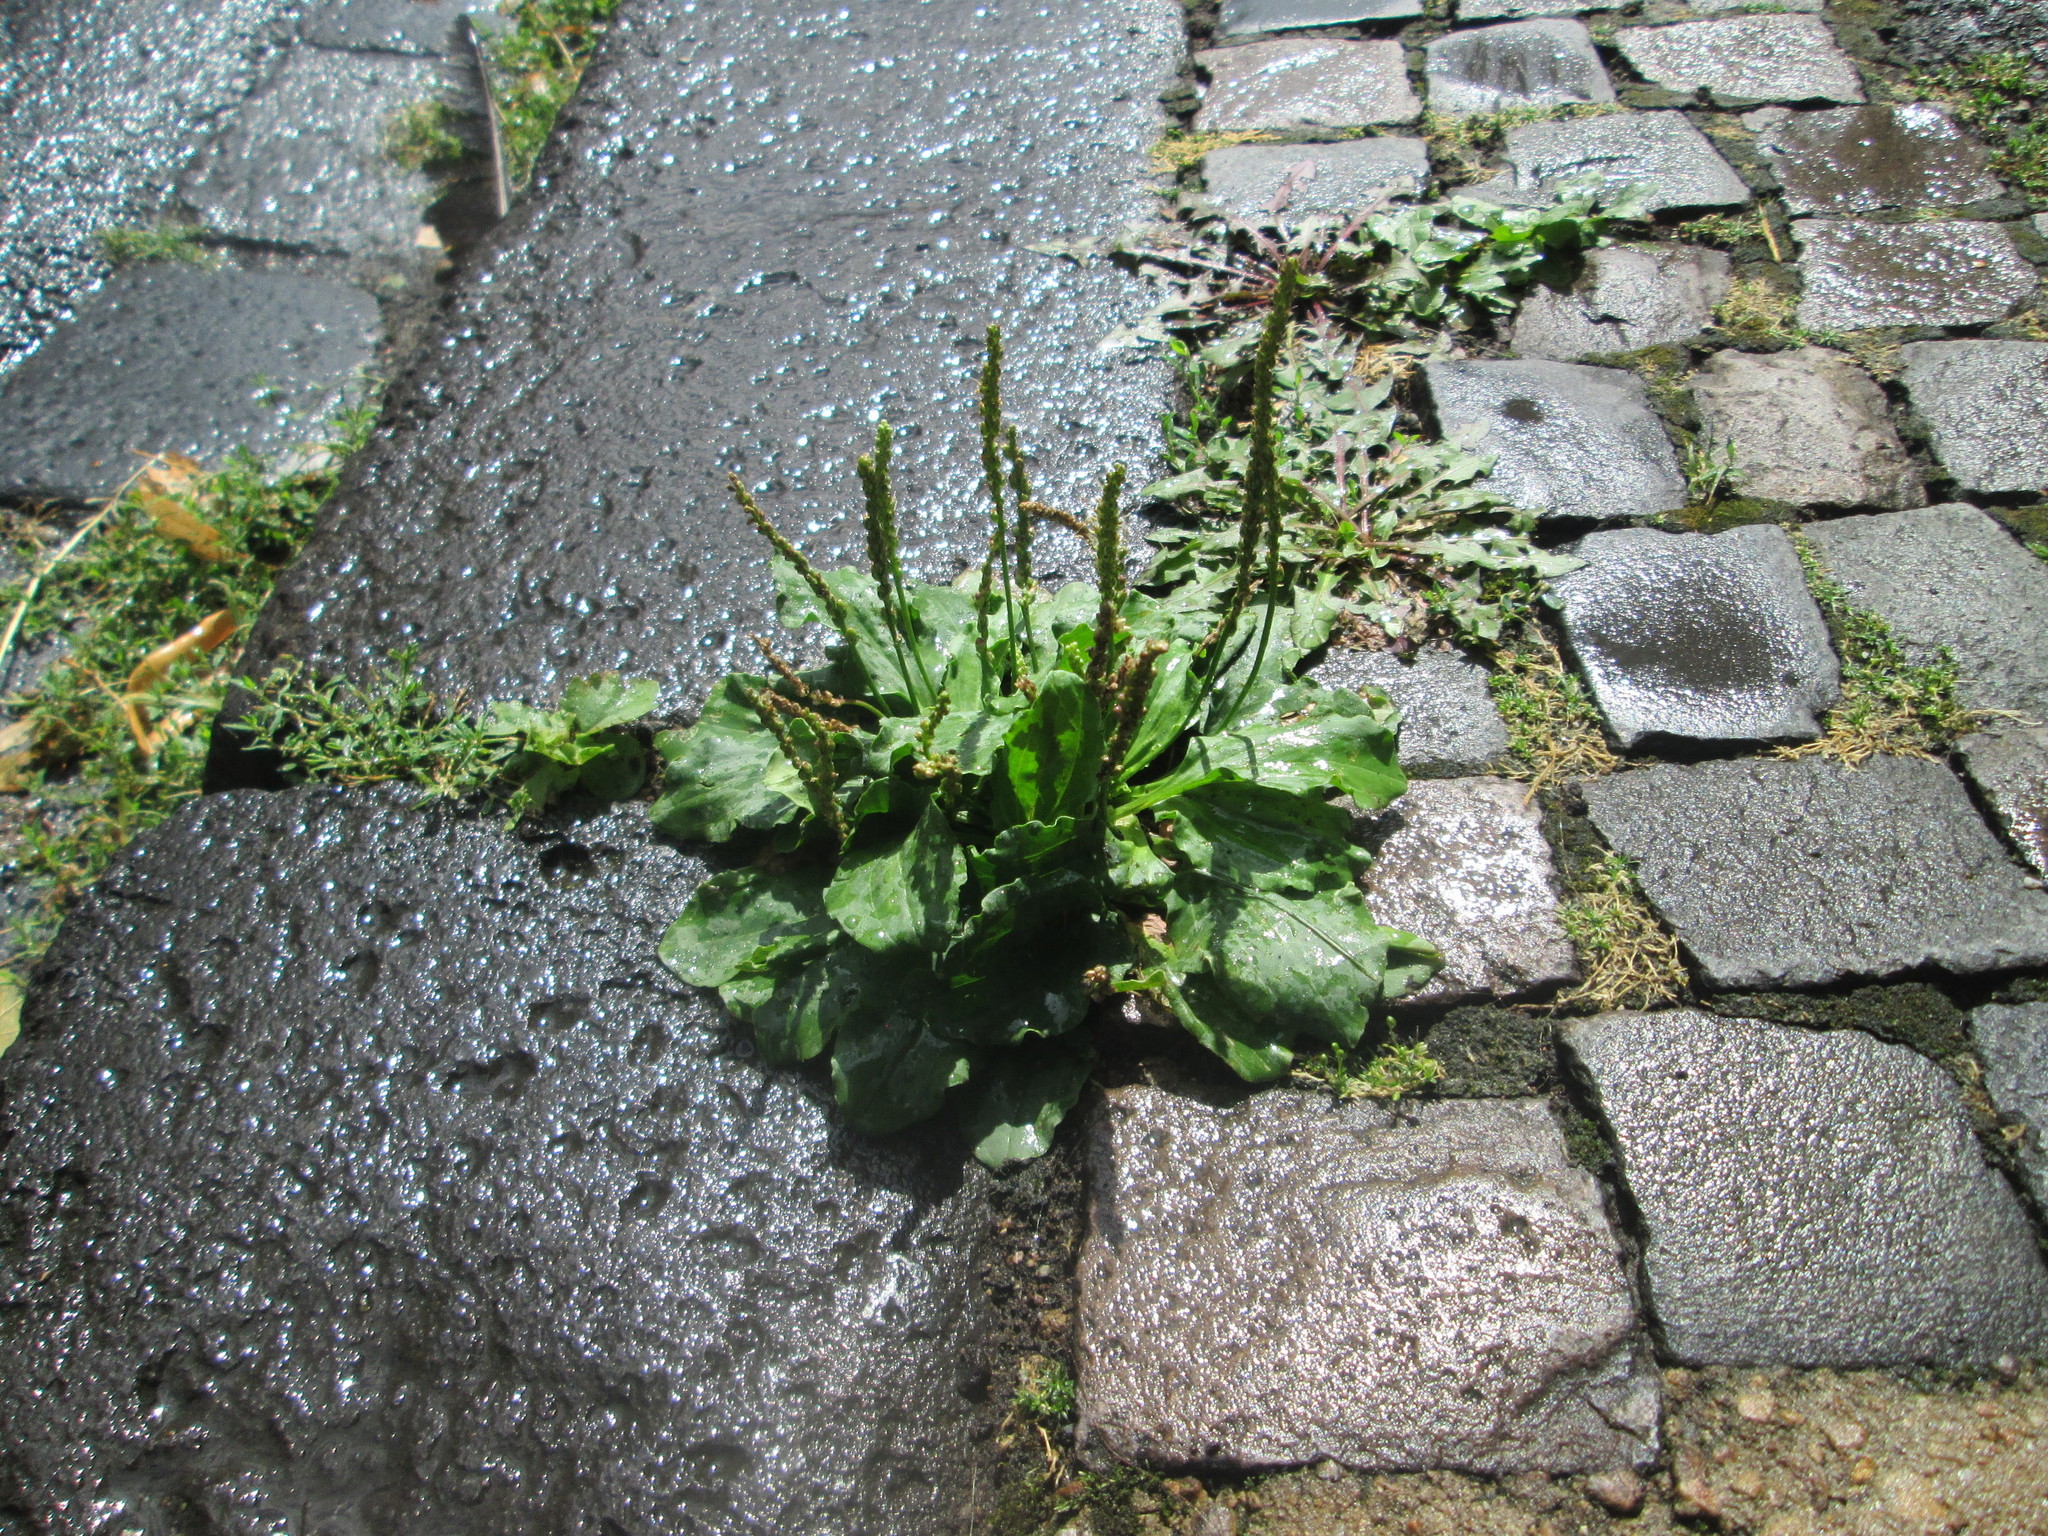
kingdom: Plantae
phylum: Tracheophyta
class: Magnoliopsida
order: Lamiales
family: Plantaginaceae
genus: Plantago
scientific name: Plantago major
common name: Common plantain
